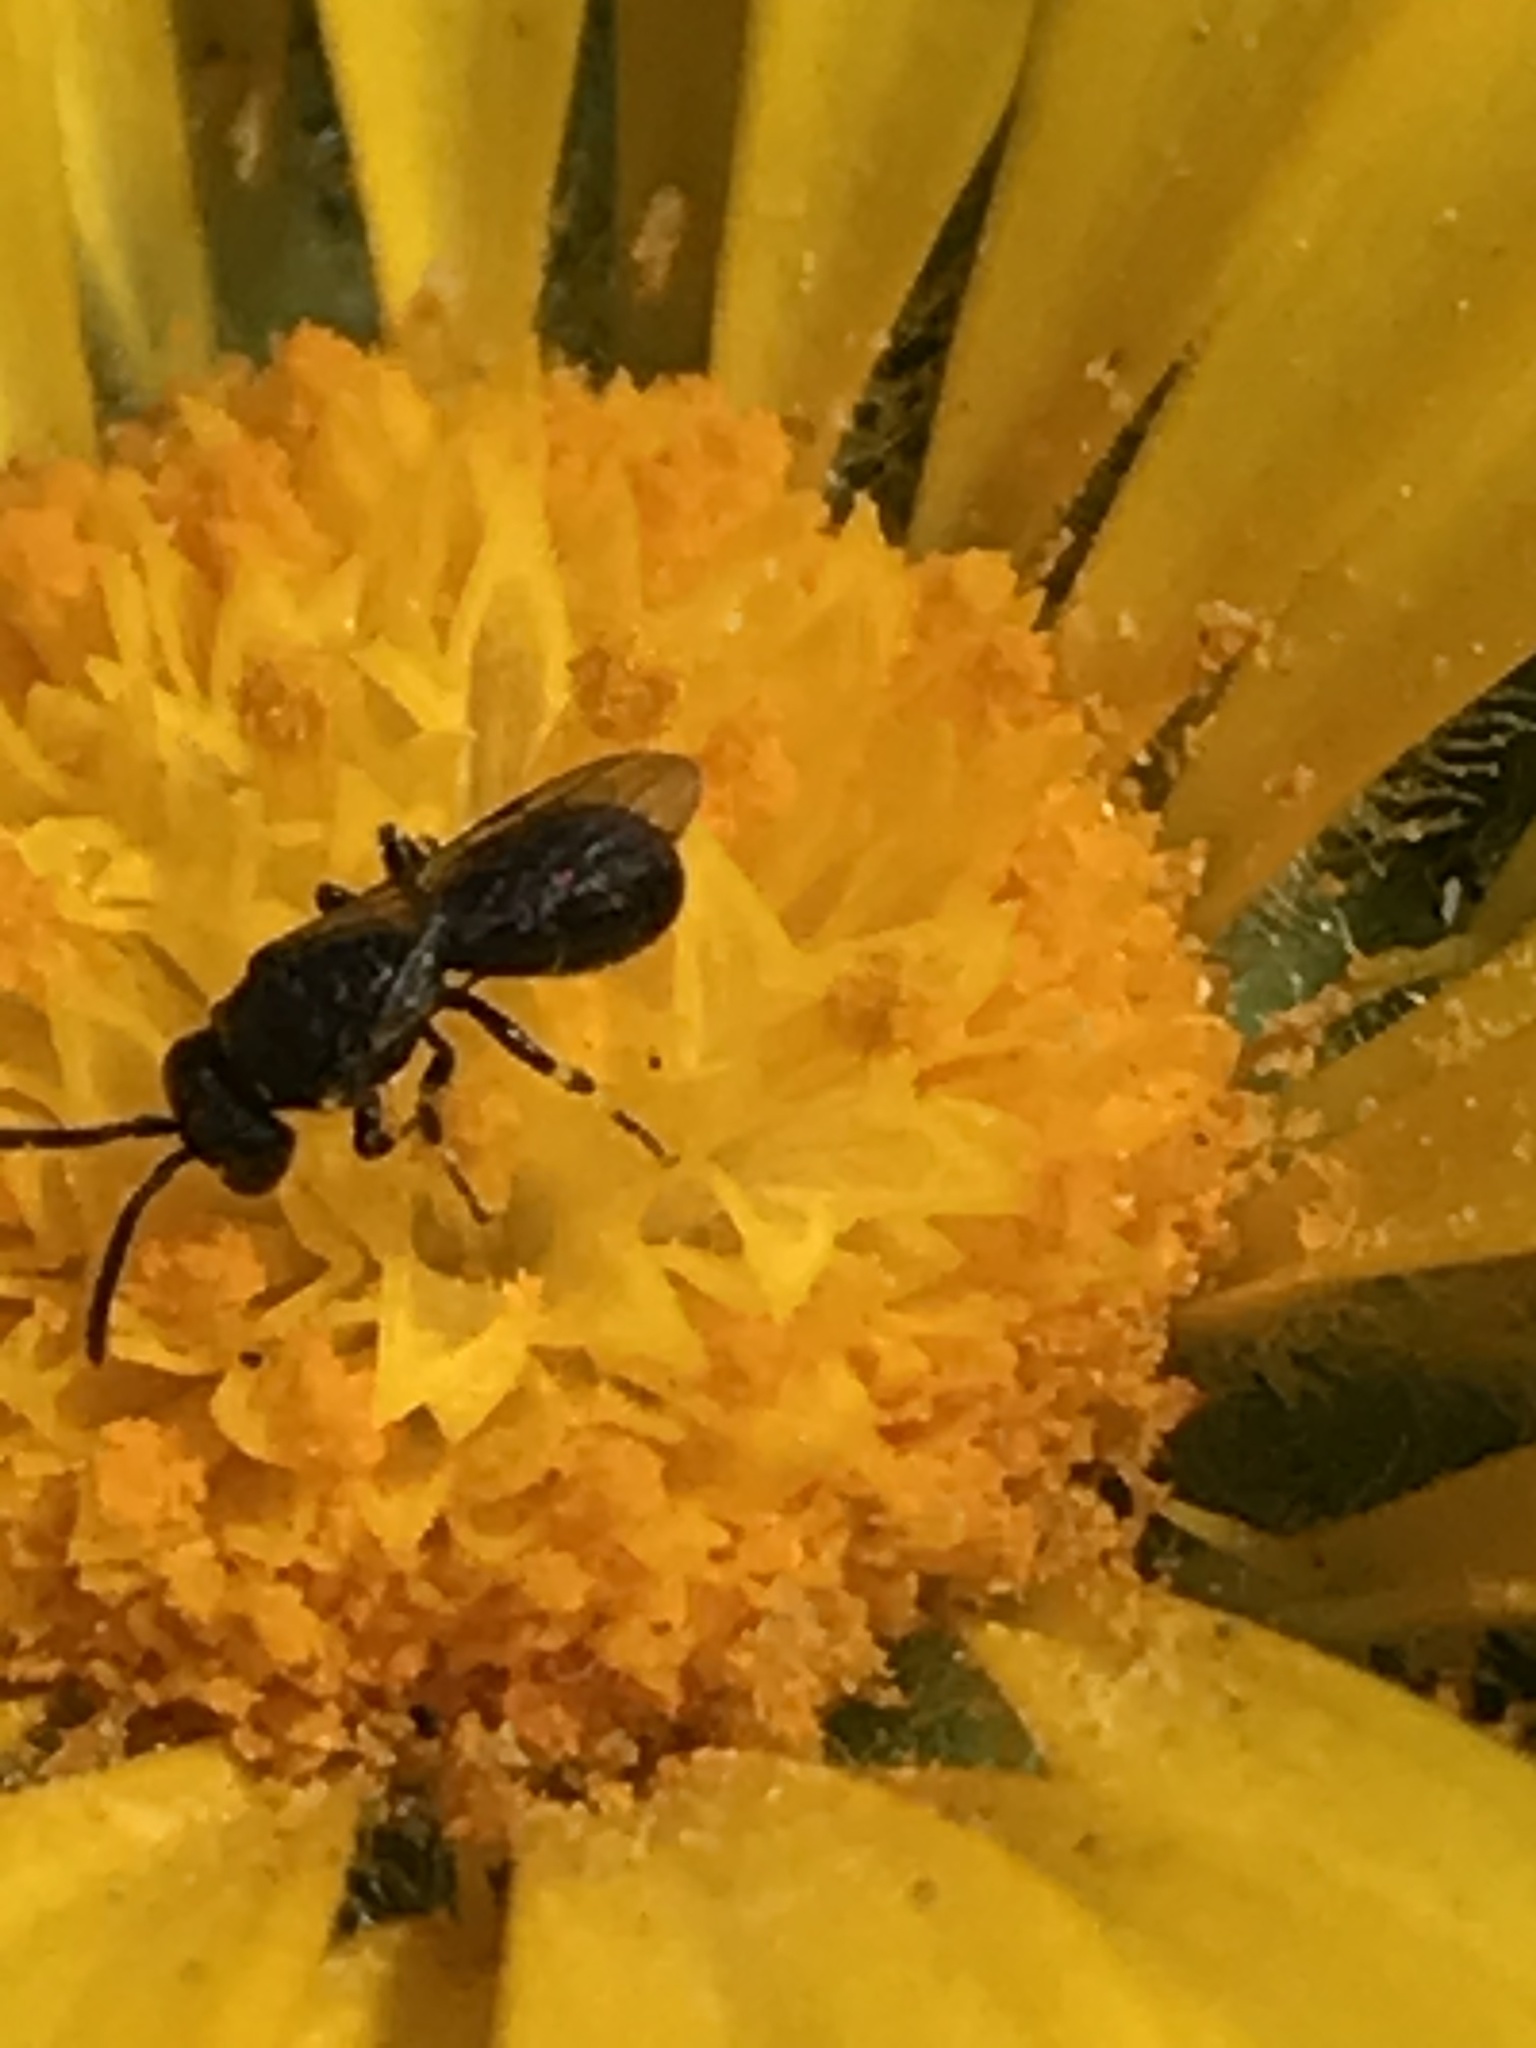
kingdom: Animalia
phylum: Arthropoda
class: Insecta
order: Hymenoptera
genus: Paraprosopis
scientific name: Paraprosopis
